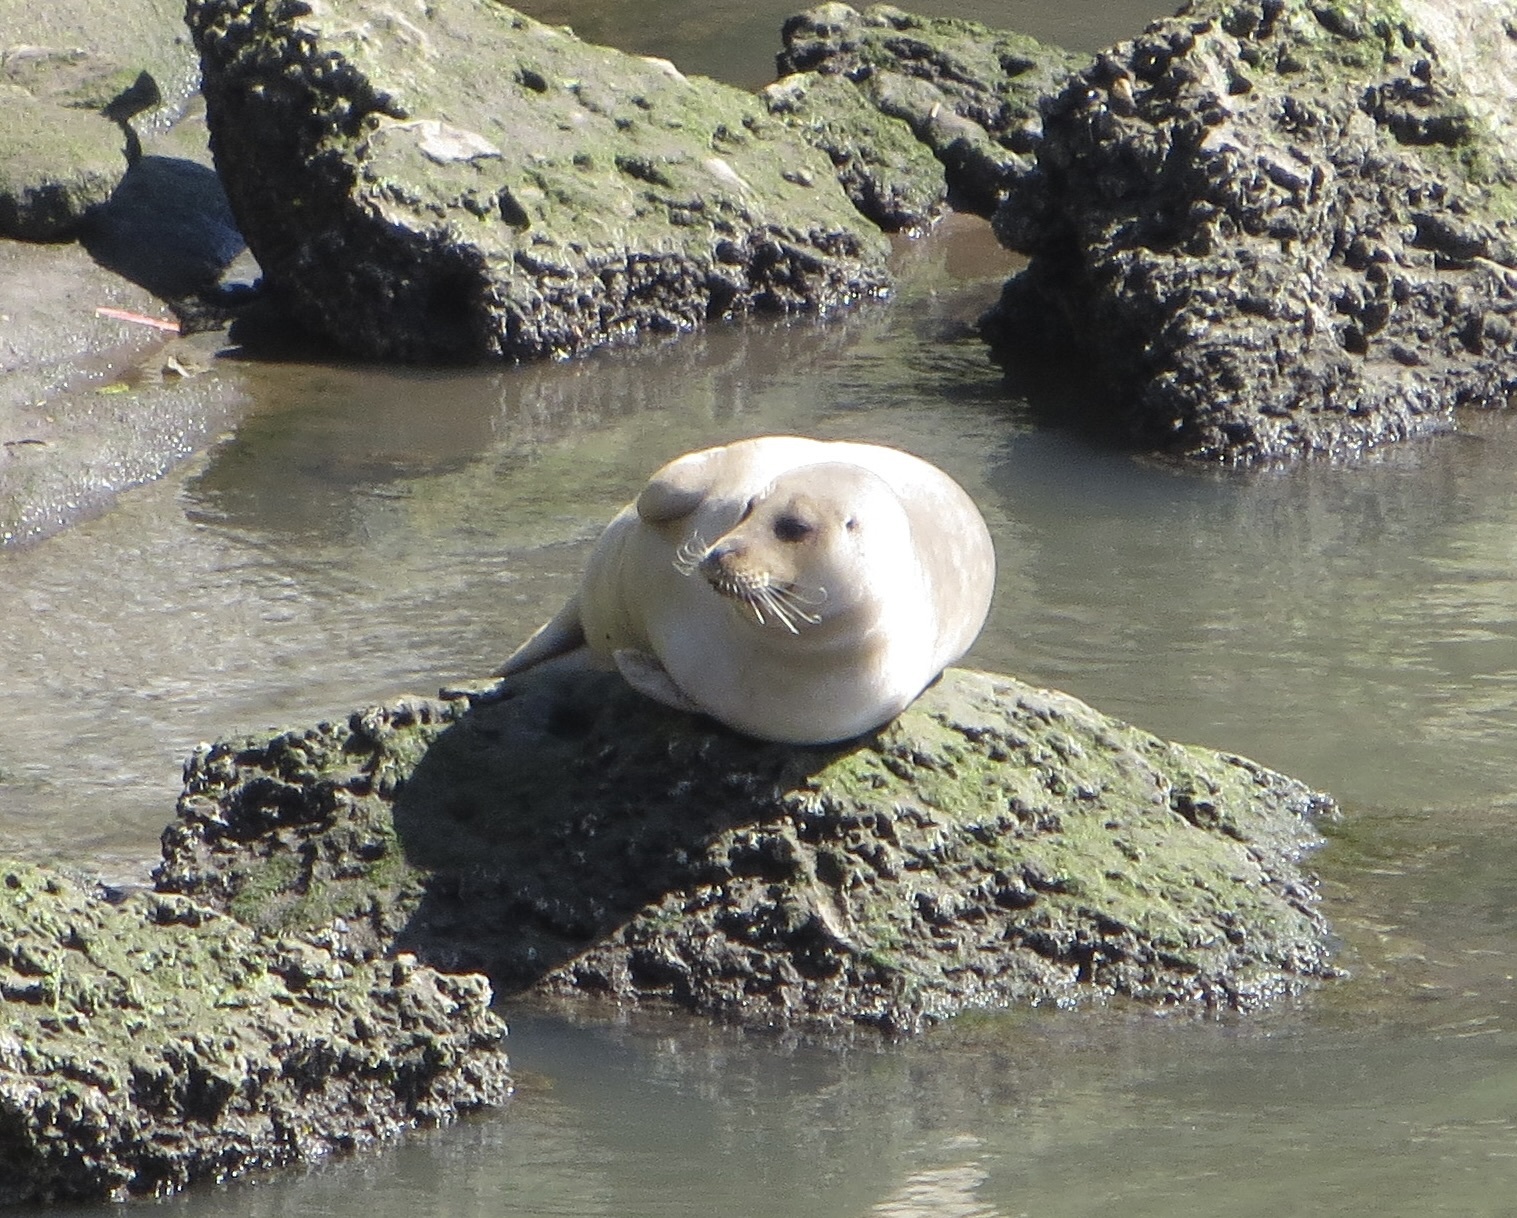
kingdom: Animalia
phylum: Chordata
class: Mammalia
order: Carnivora
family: Phocidae
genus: Phoca
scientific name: Phoca vitulina
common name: Harbor seal
